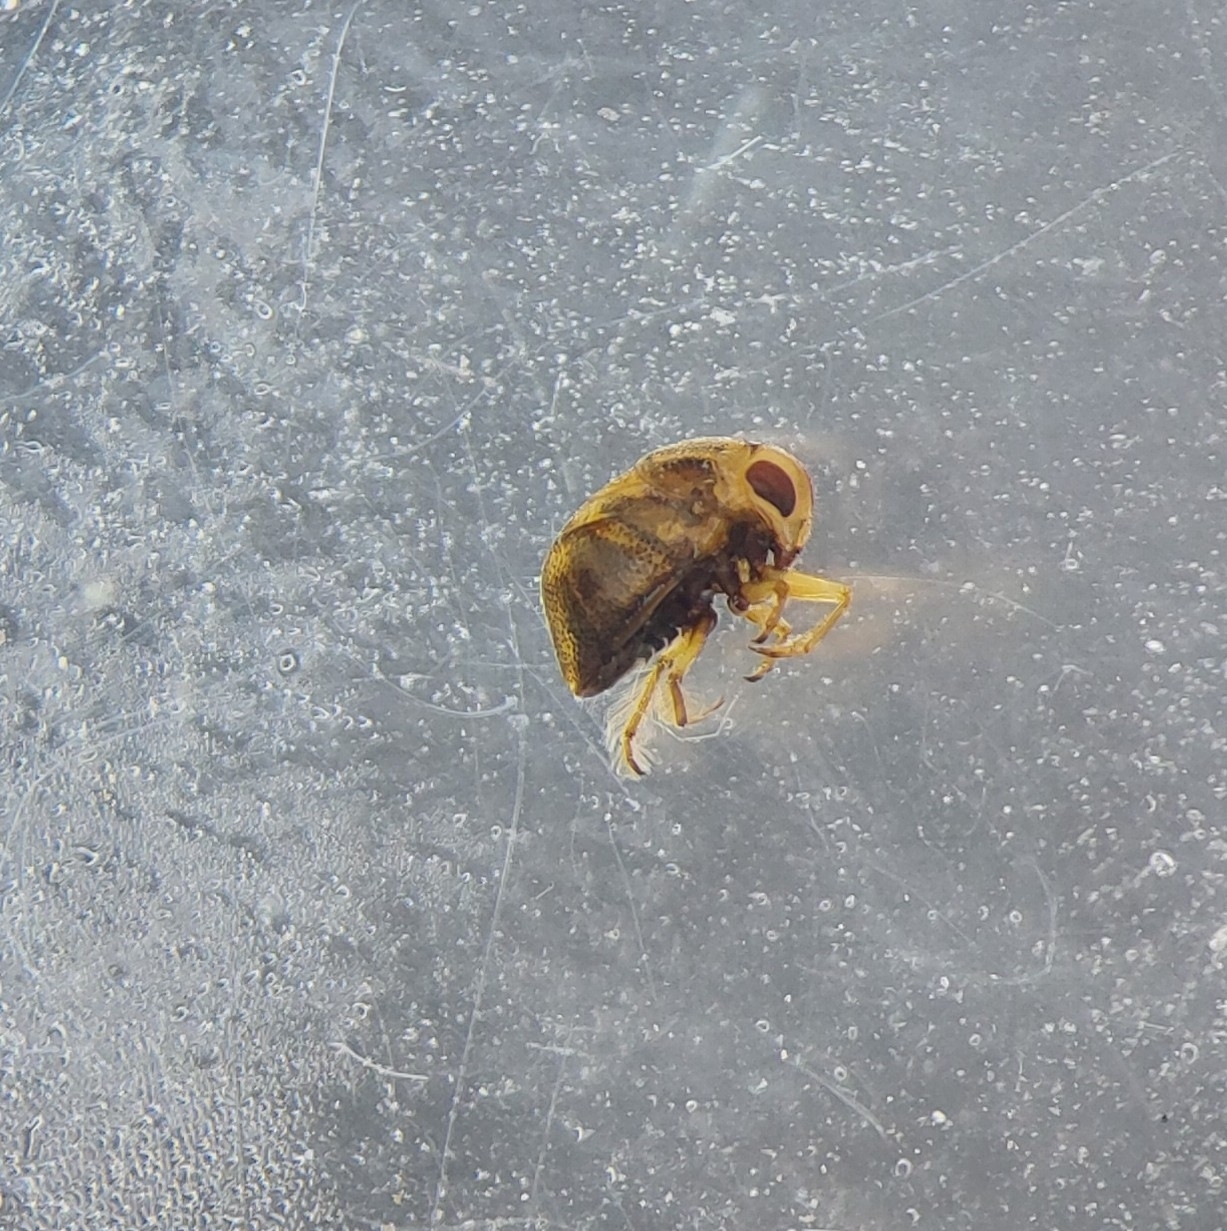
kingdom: Animalia
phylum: Arthropoda
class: Insecta
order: Hemiptera
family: Pleidae
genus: Plea
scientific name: Plea minutissima
